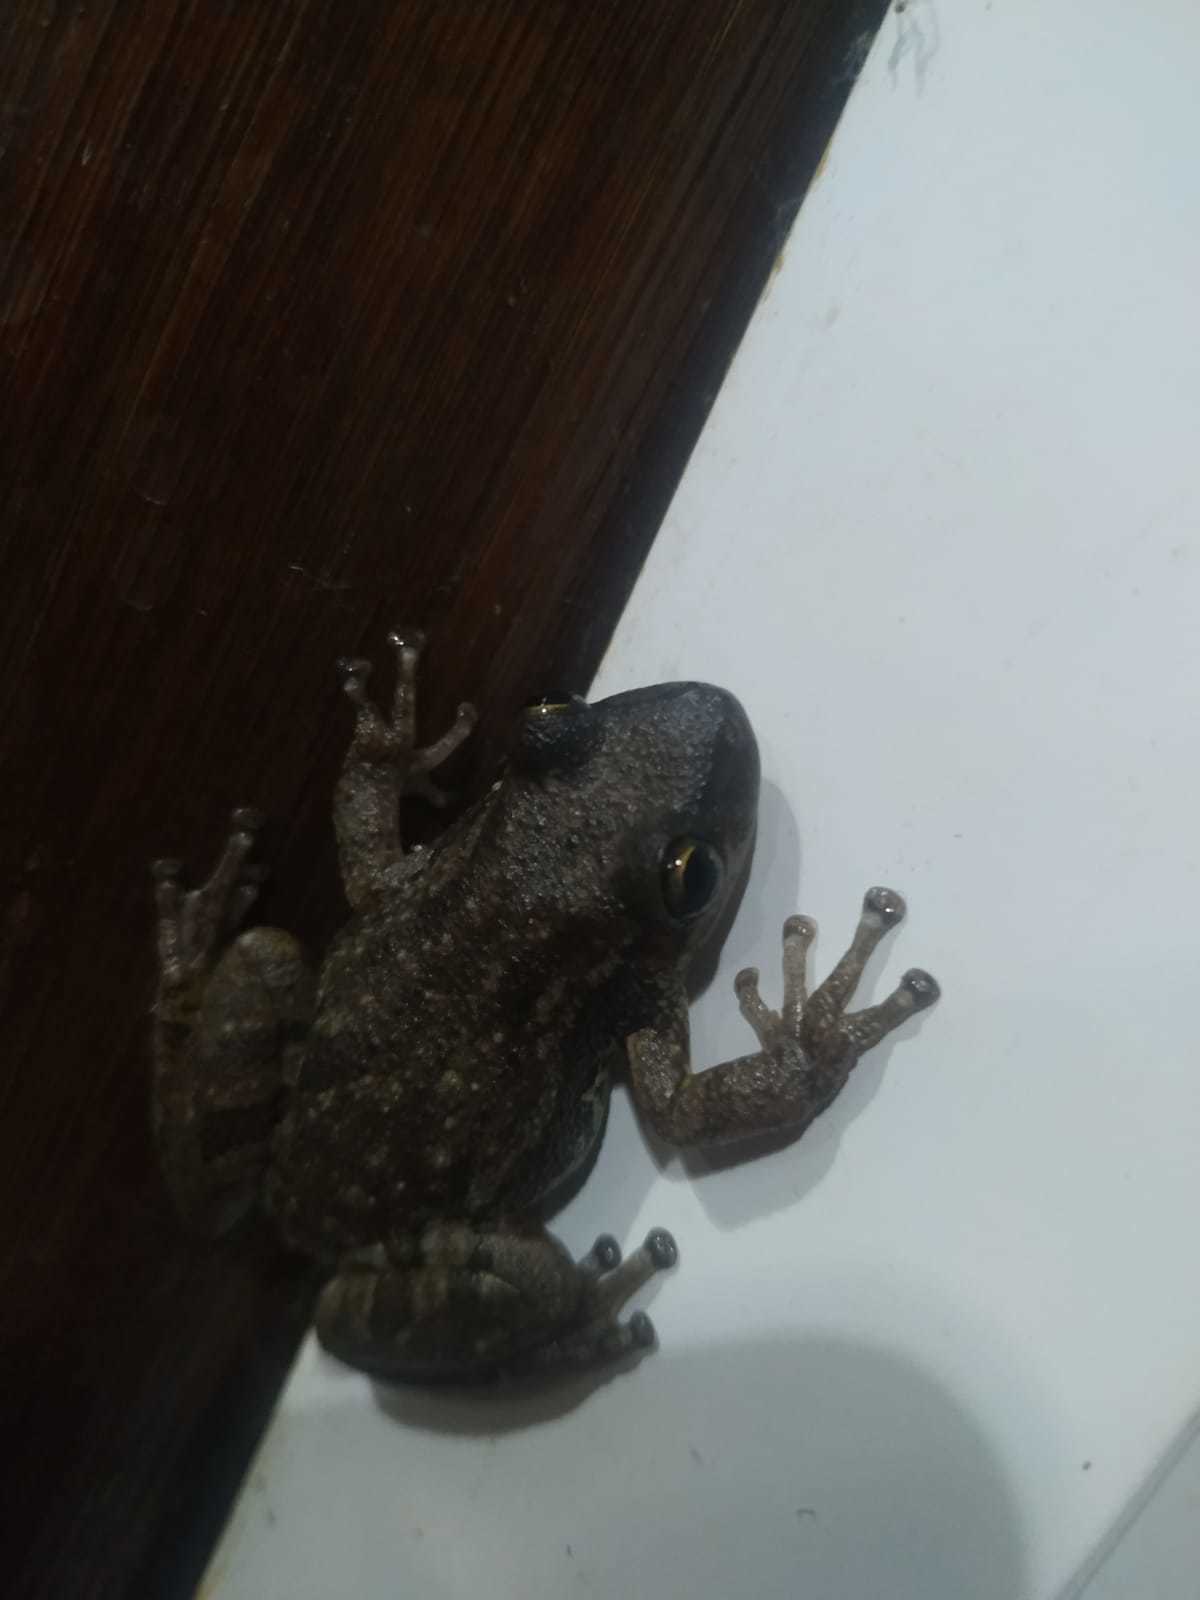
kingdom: Animalia
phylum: Chordata
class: Amphibia
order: Anura
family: Hylidae
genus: Scinax
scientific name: Scinax nasicus
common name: Lesser snouted treefrog
